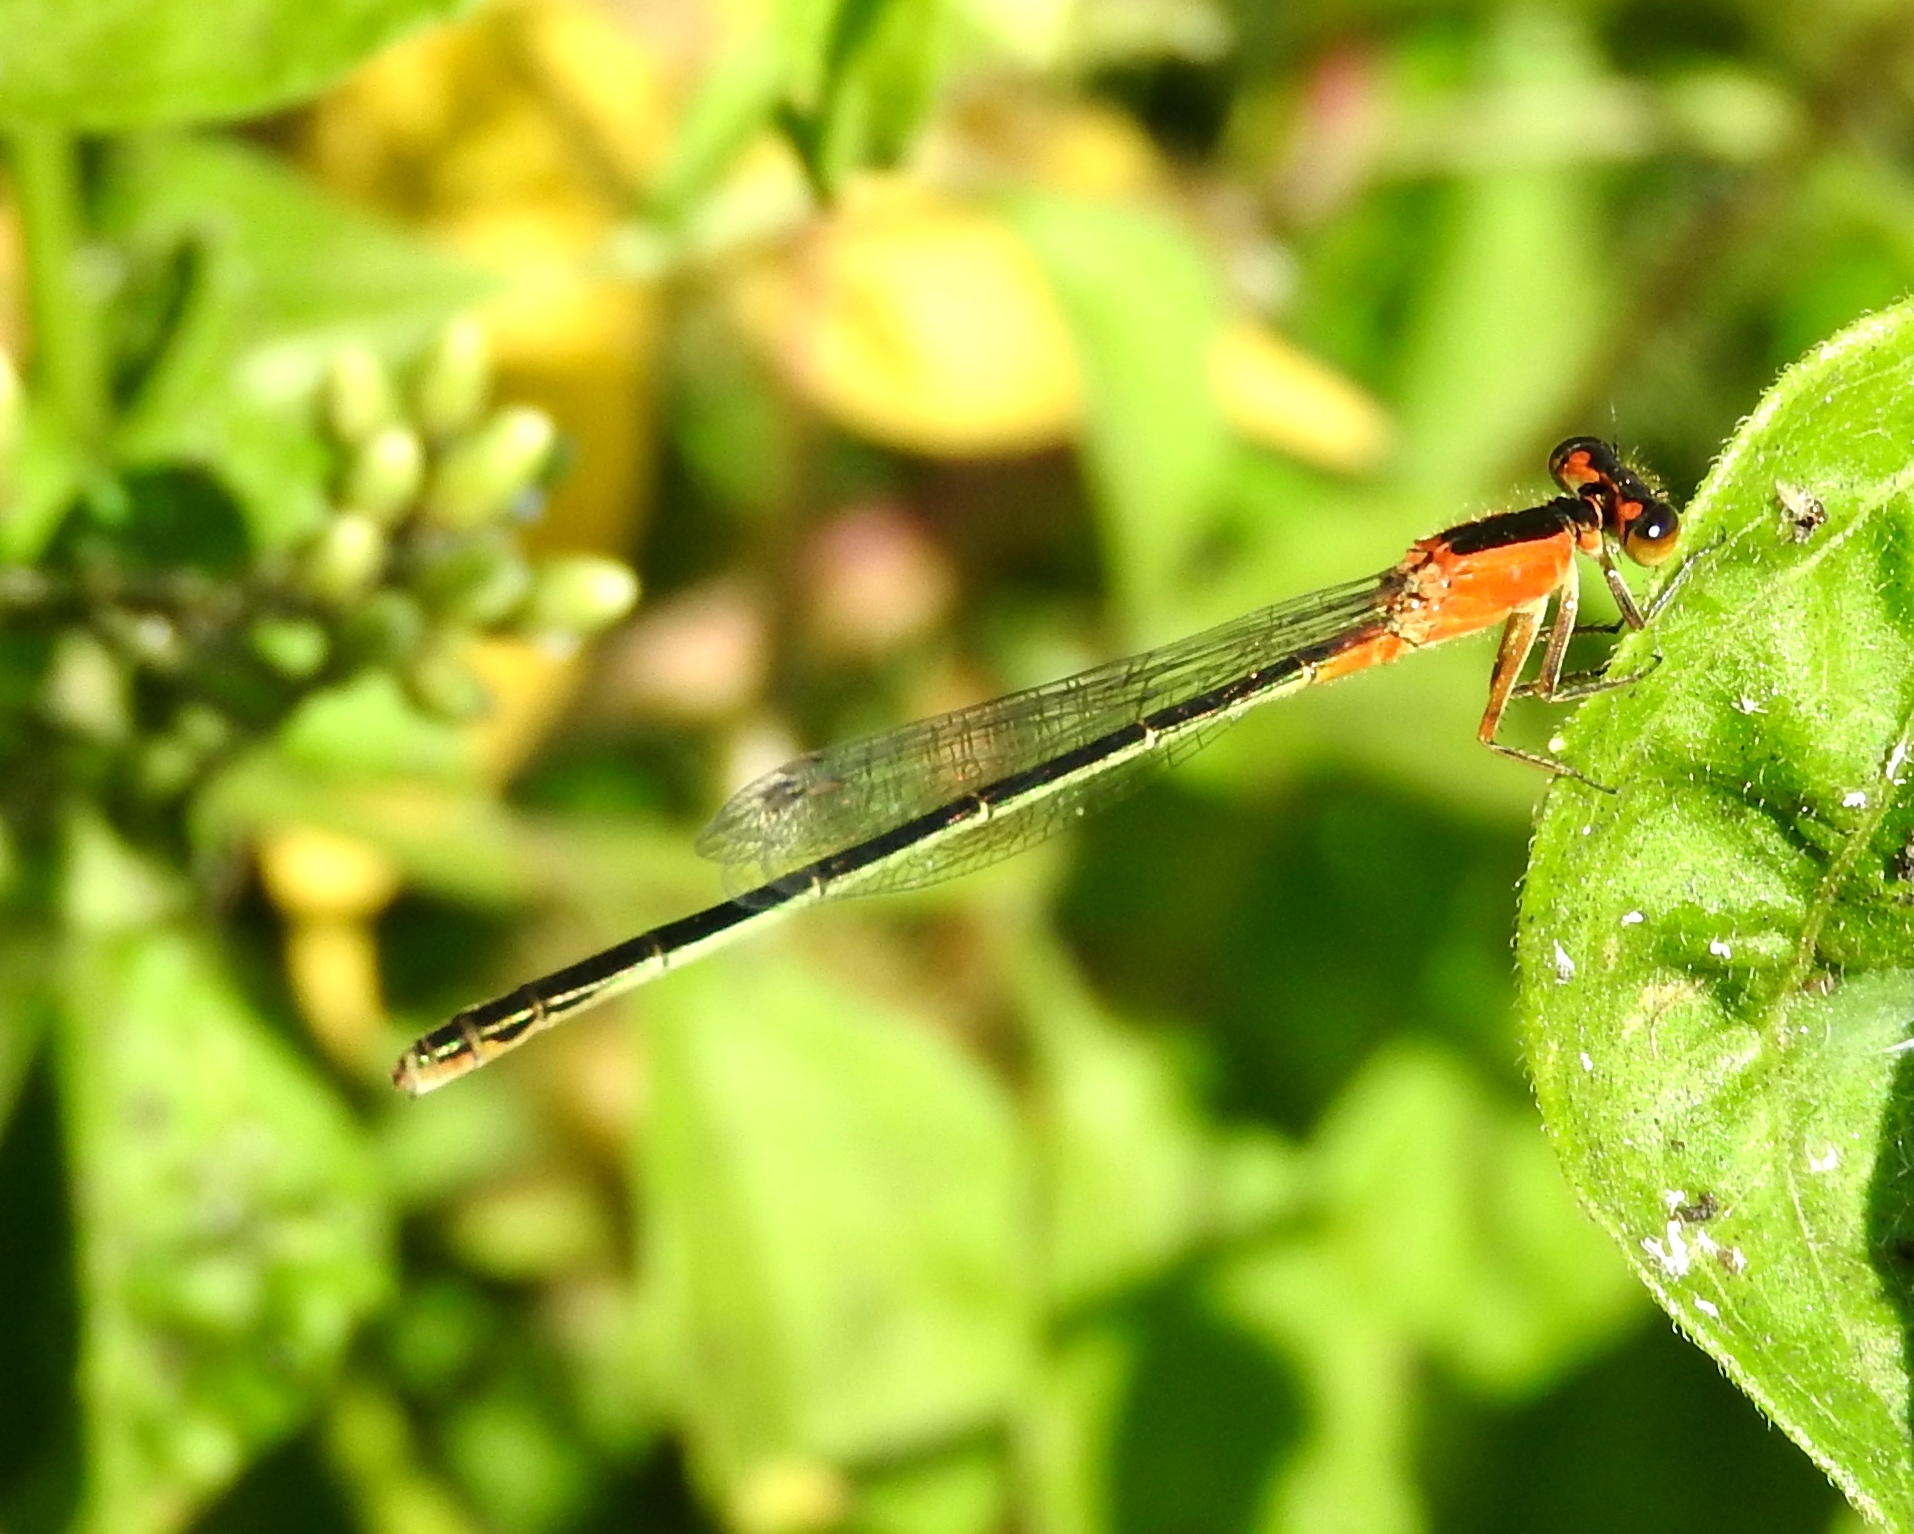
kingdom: Animalia
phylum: Arthropoda
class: Insecta
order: Odonata
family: Coenagrionidae
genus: Ischnura
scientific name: Ischnura ramburii
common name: Rambur's forktail
